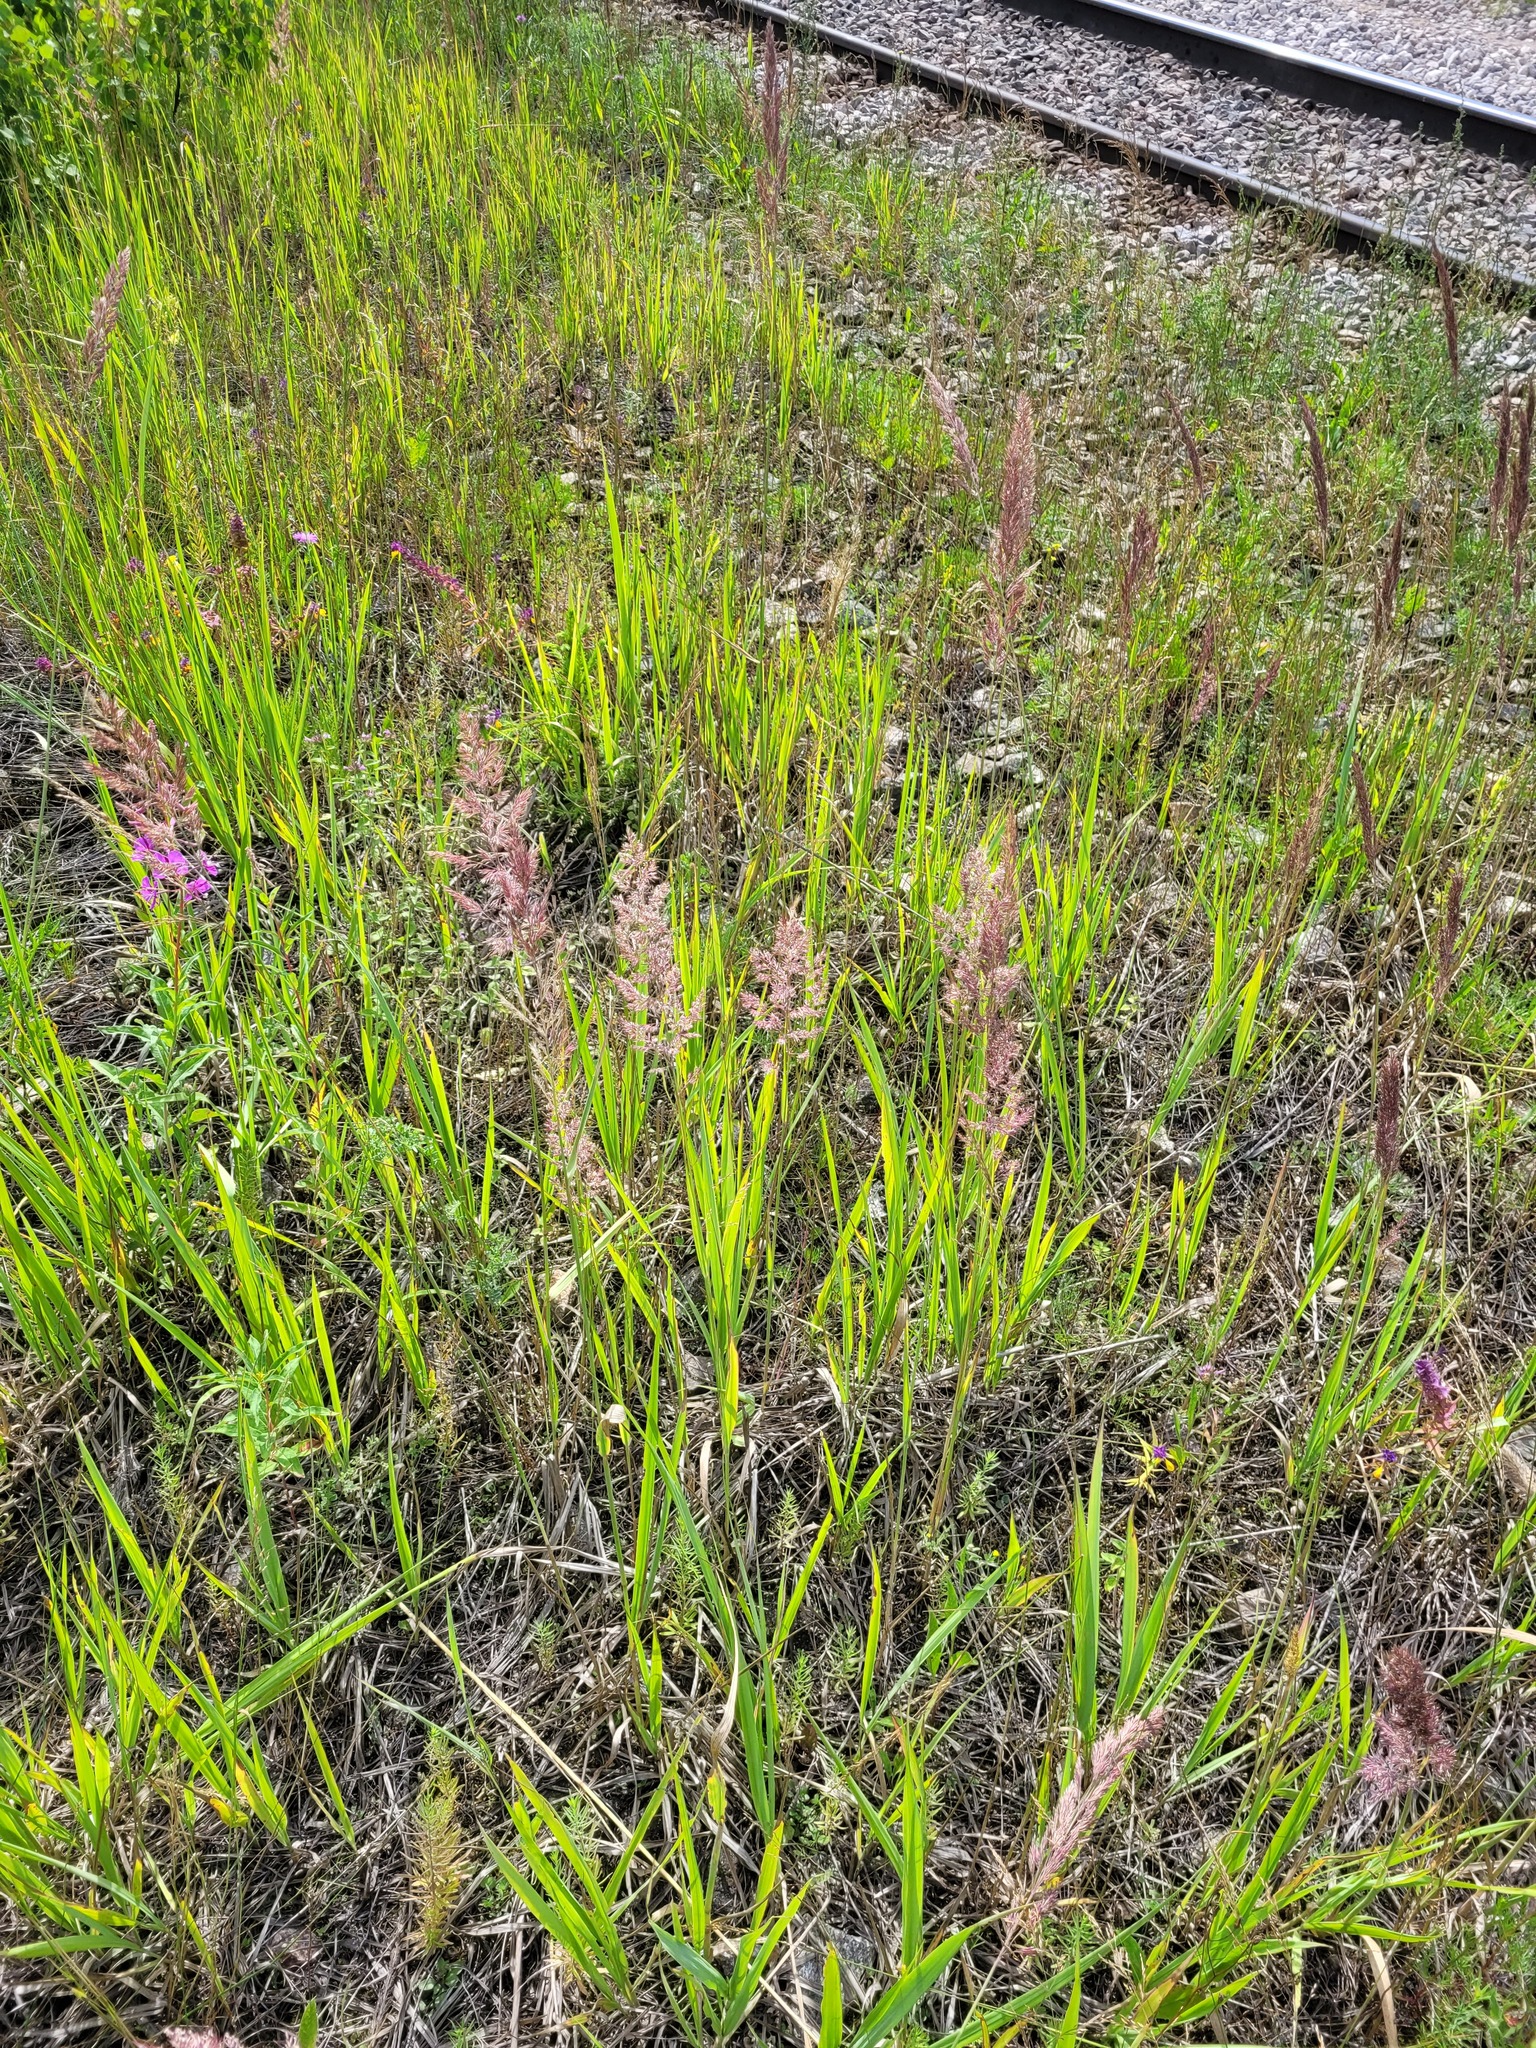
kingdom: Plantae
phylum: Tracheophyta
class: Liliopsida
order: Poales
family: Poaceae
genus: Calamagrostis
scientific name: Calamagrostis epigejos
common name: Wood small-reed
